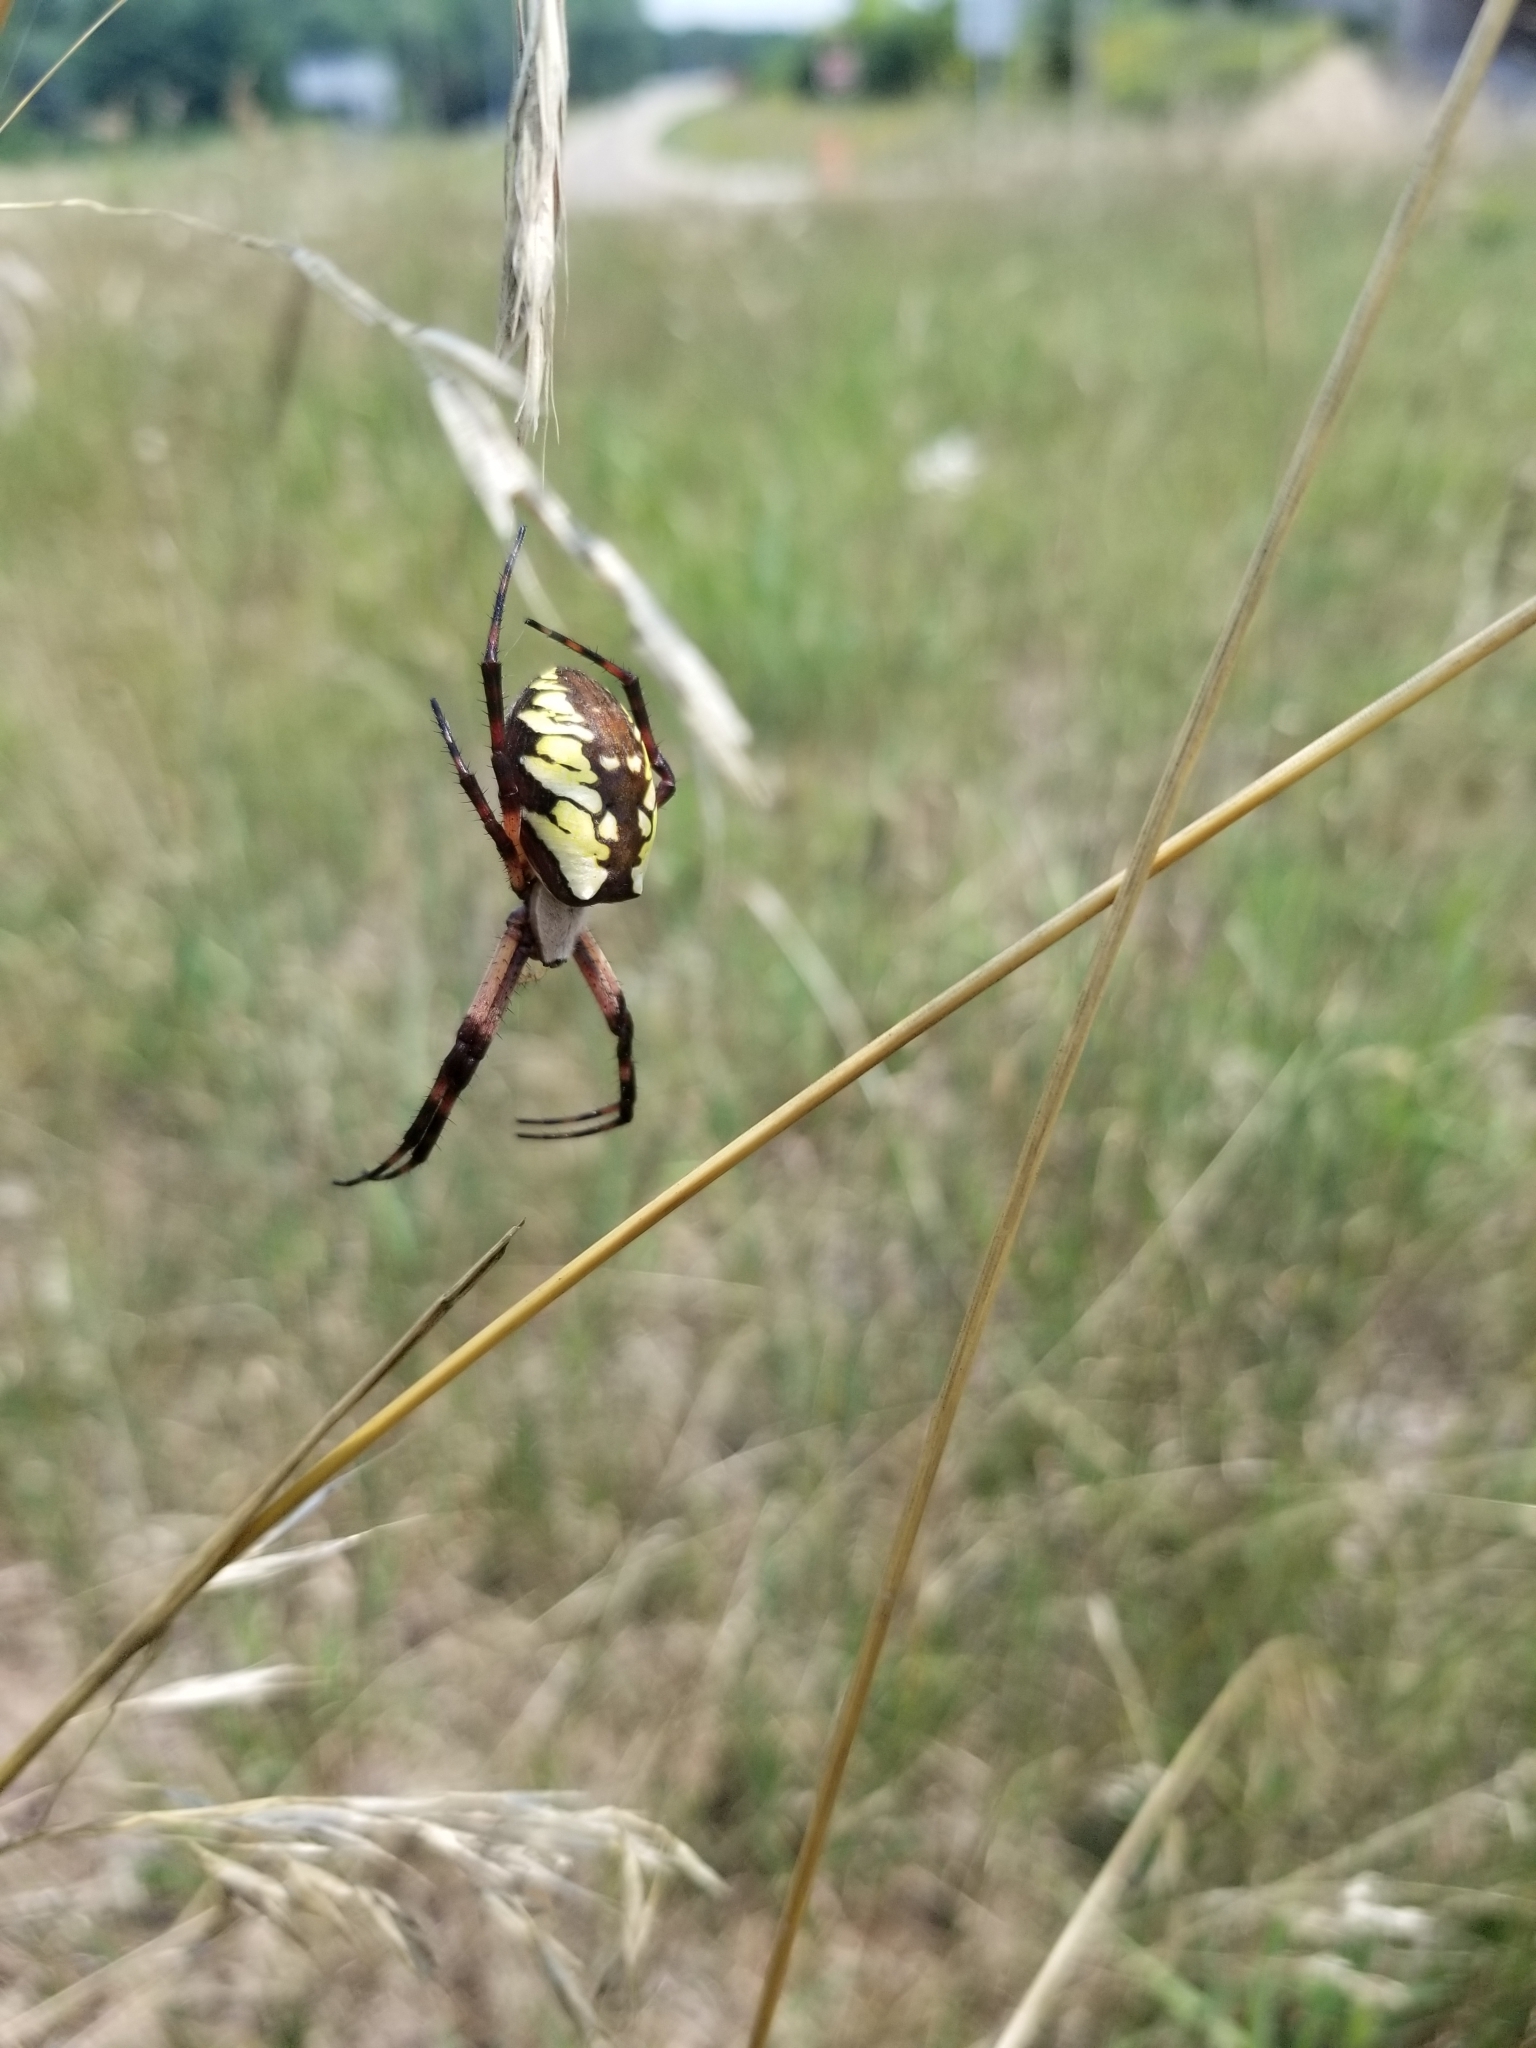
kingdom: Animalia
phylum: Arthropoda
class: Arachnida
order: Araneae
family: Araneidae
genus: Argiope
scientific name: Argiope aurantia
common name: Orb weavers
